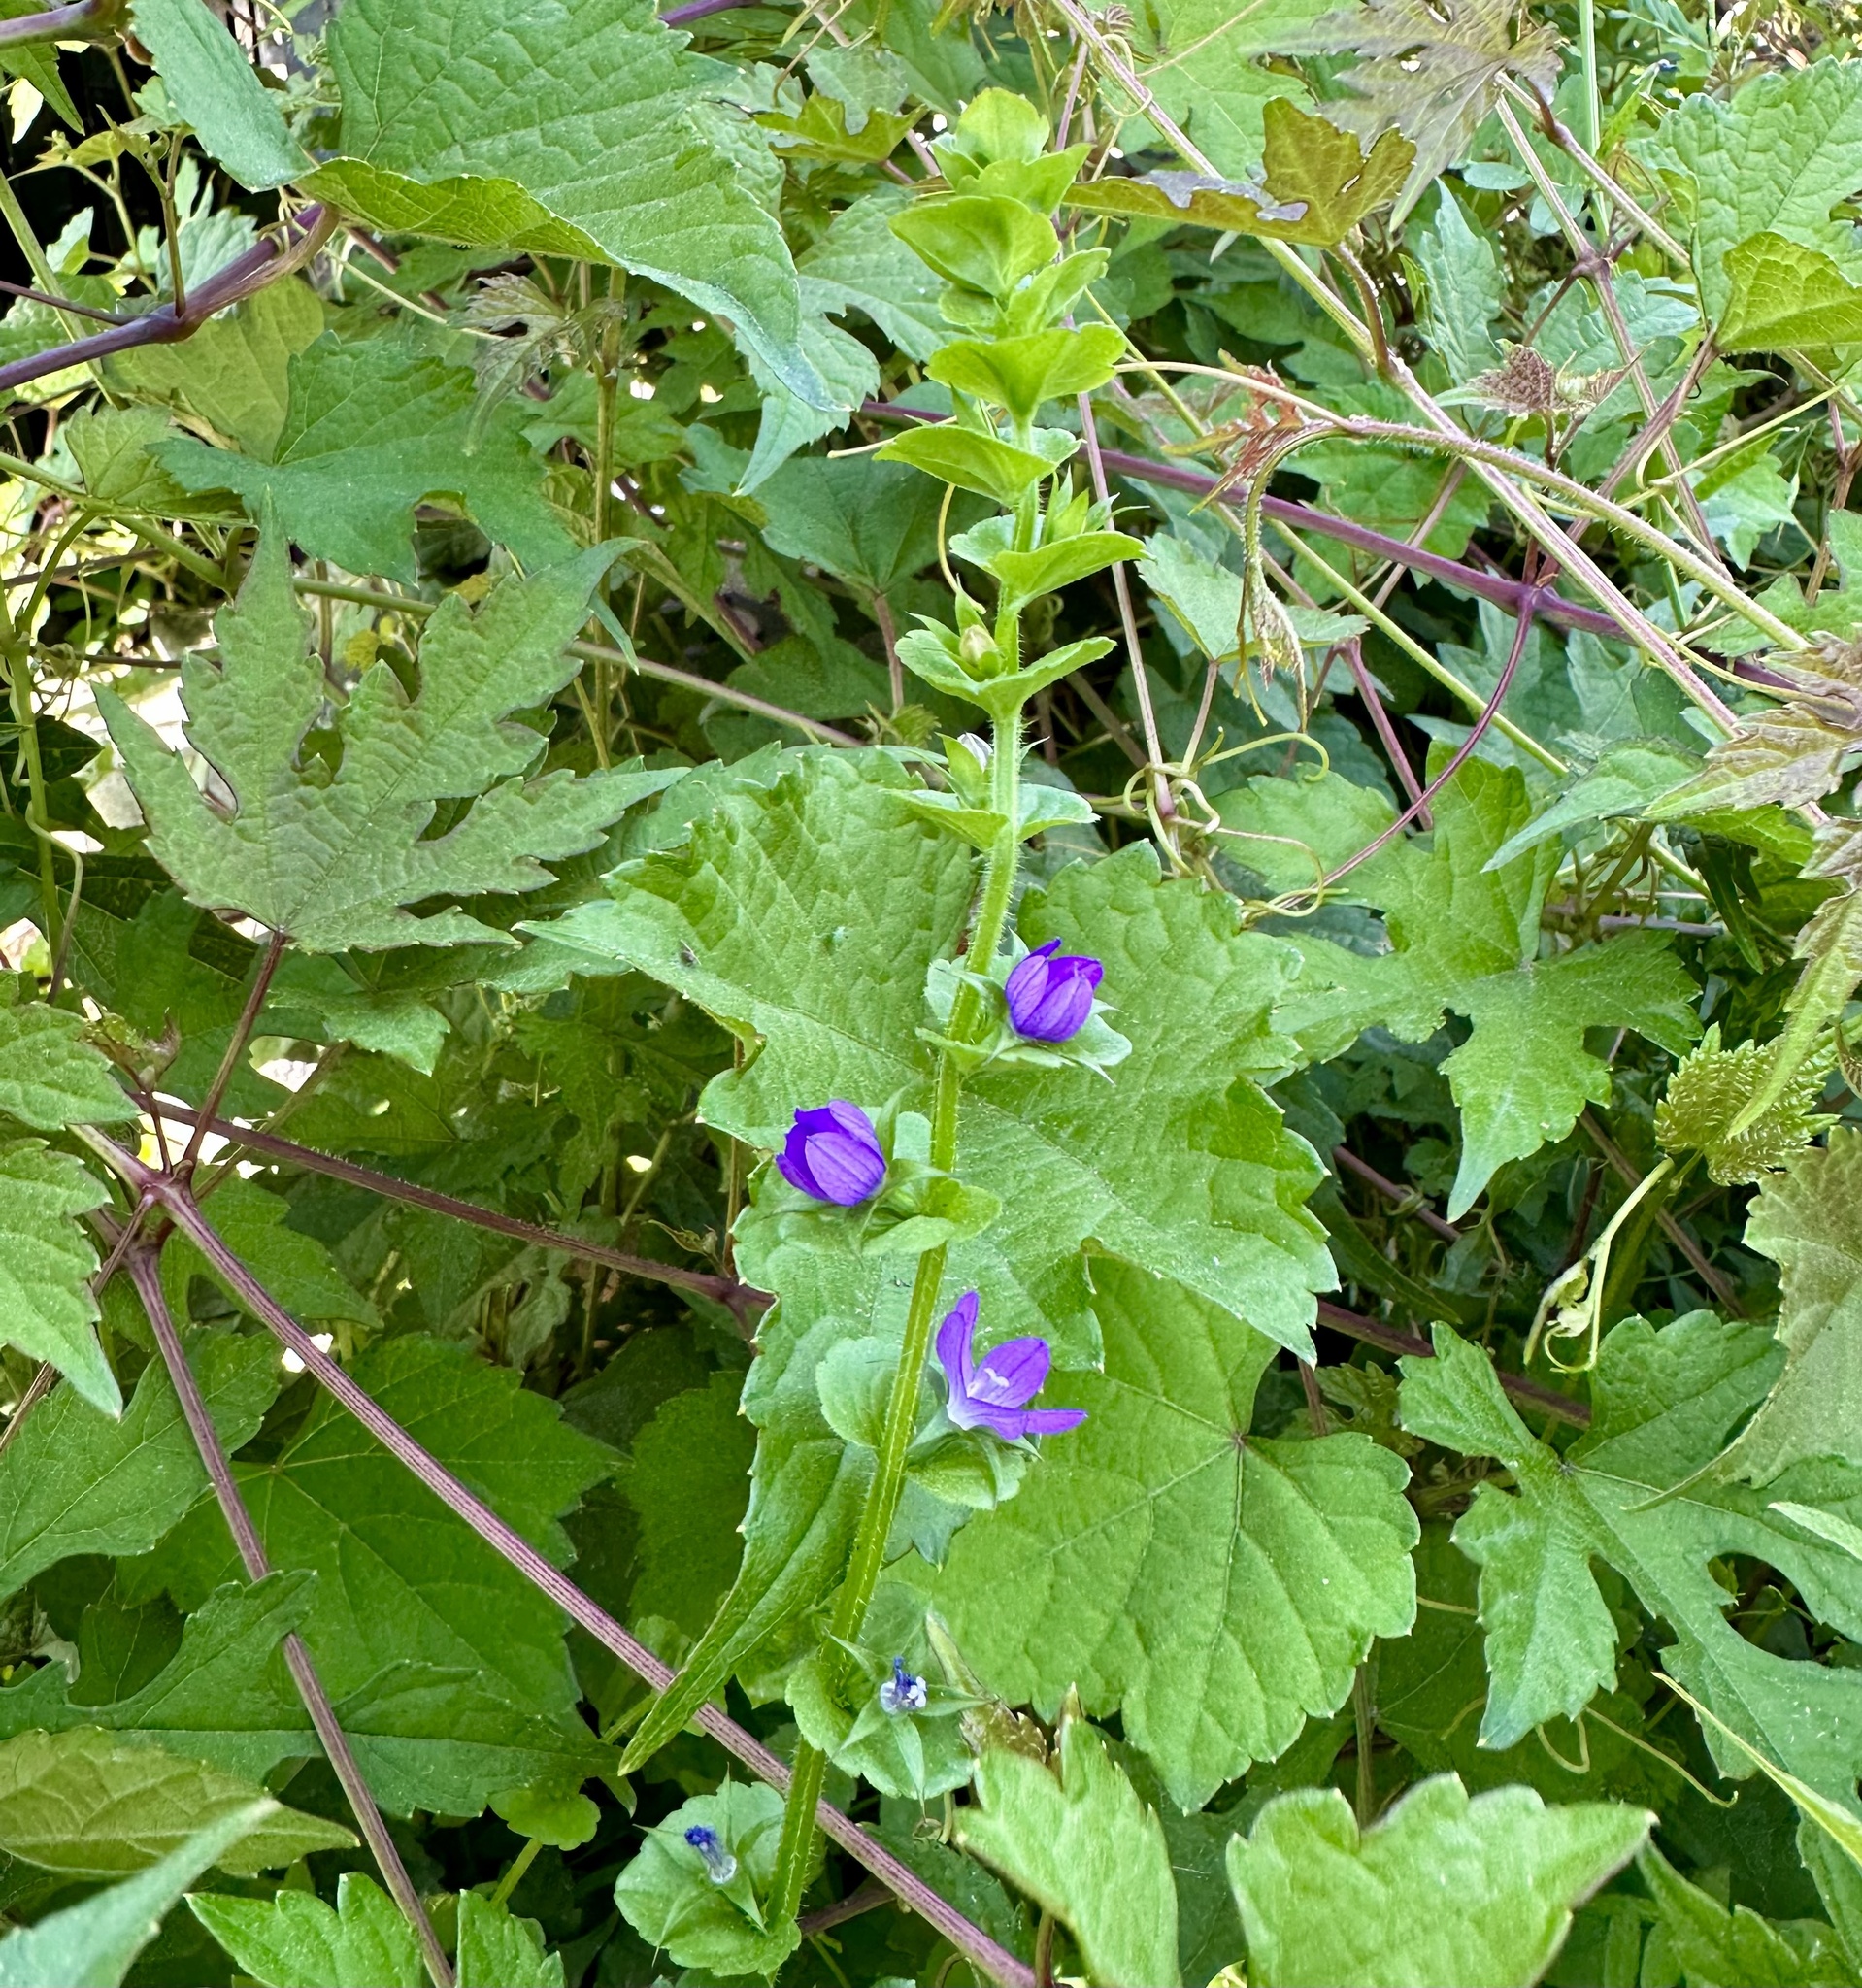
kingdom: Plantae
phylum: Tracheophyta
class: Magnoliopsida
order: Asterales
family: Campanulaceae
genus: Triodanis
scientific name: Triodanis perfoliata
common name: Clasping venus' looking-glass
